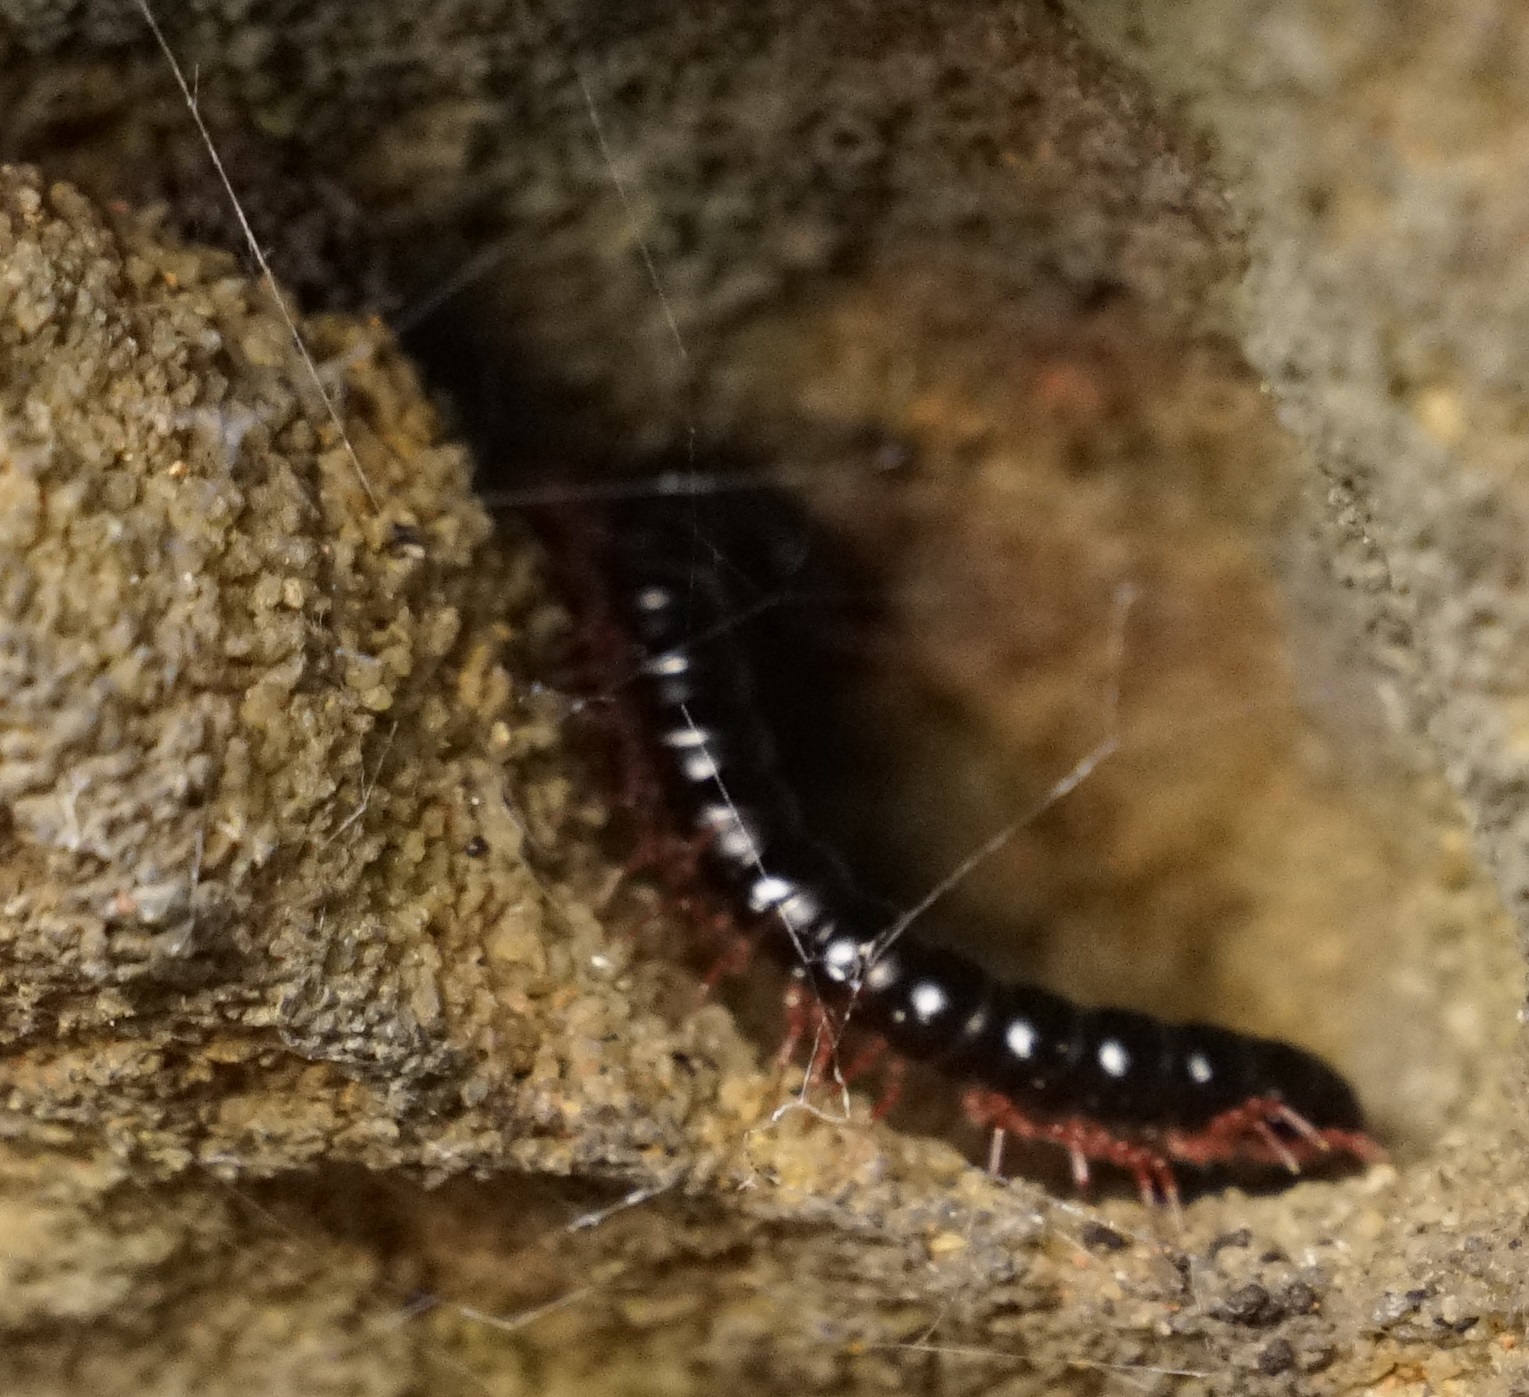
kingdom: Animalia
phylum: Arthropoda
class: Diplopoda
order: Polydesmida
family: Paradoxosomatidae
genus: Heterocladosoma
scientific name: Heterocladosoma
